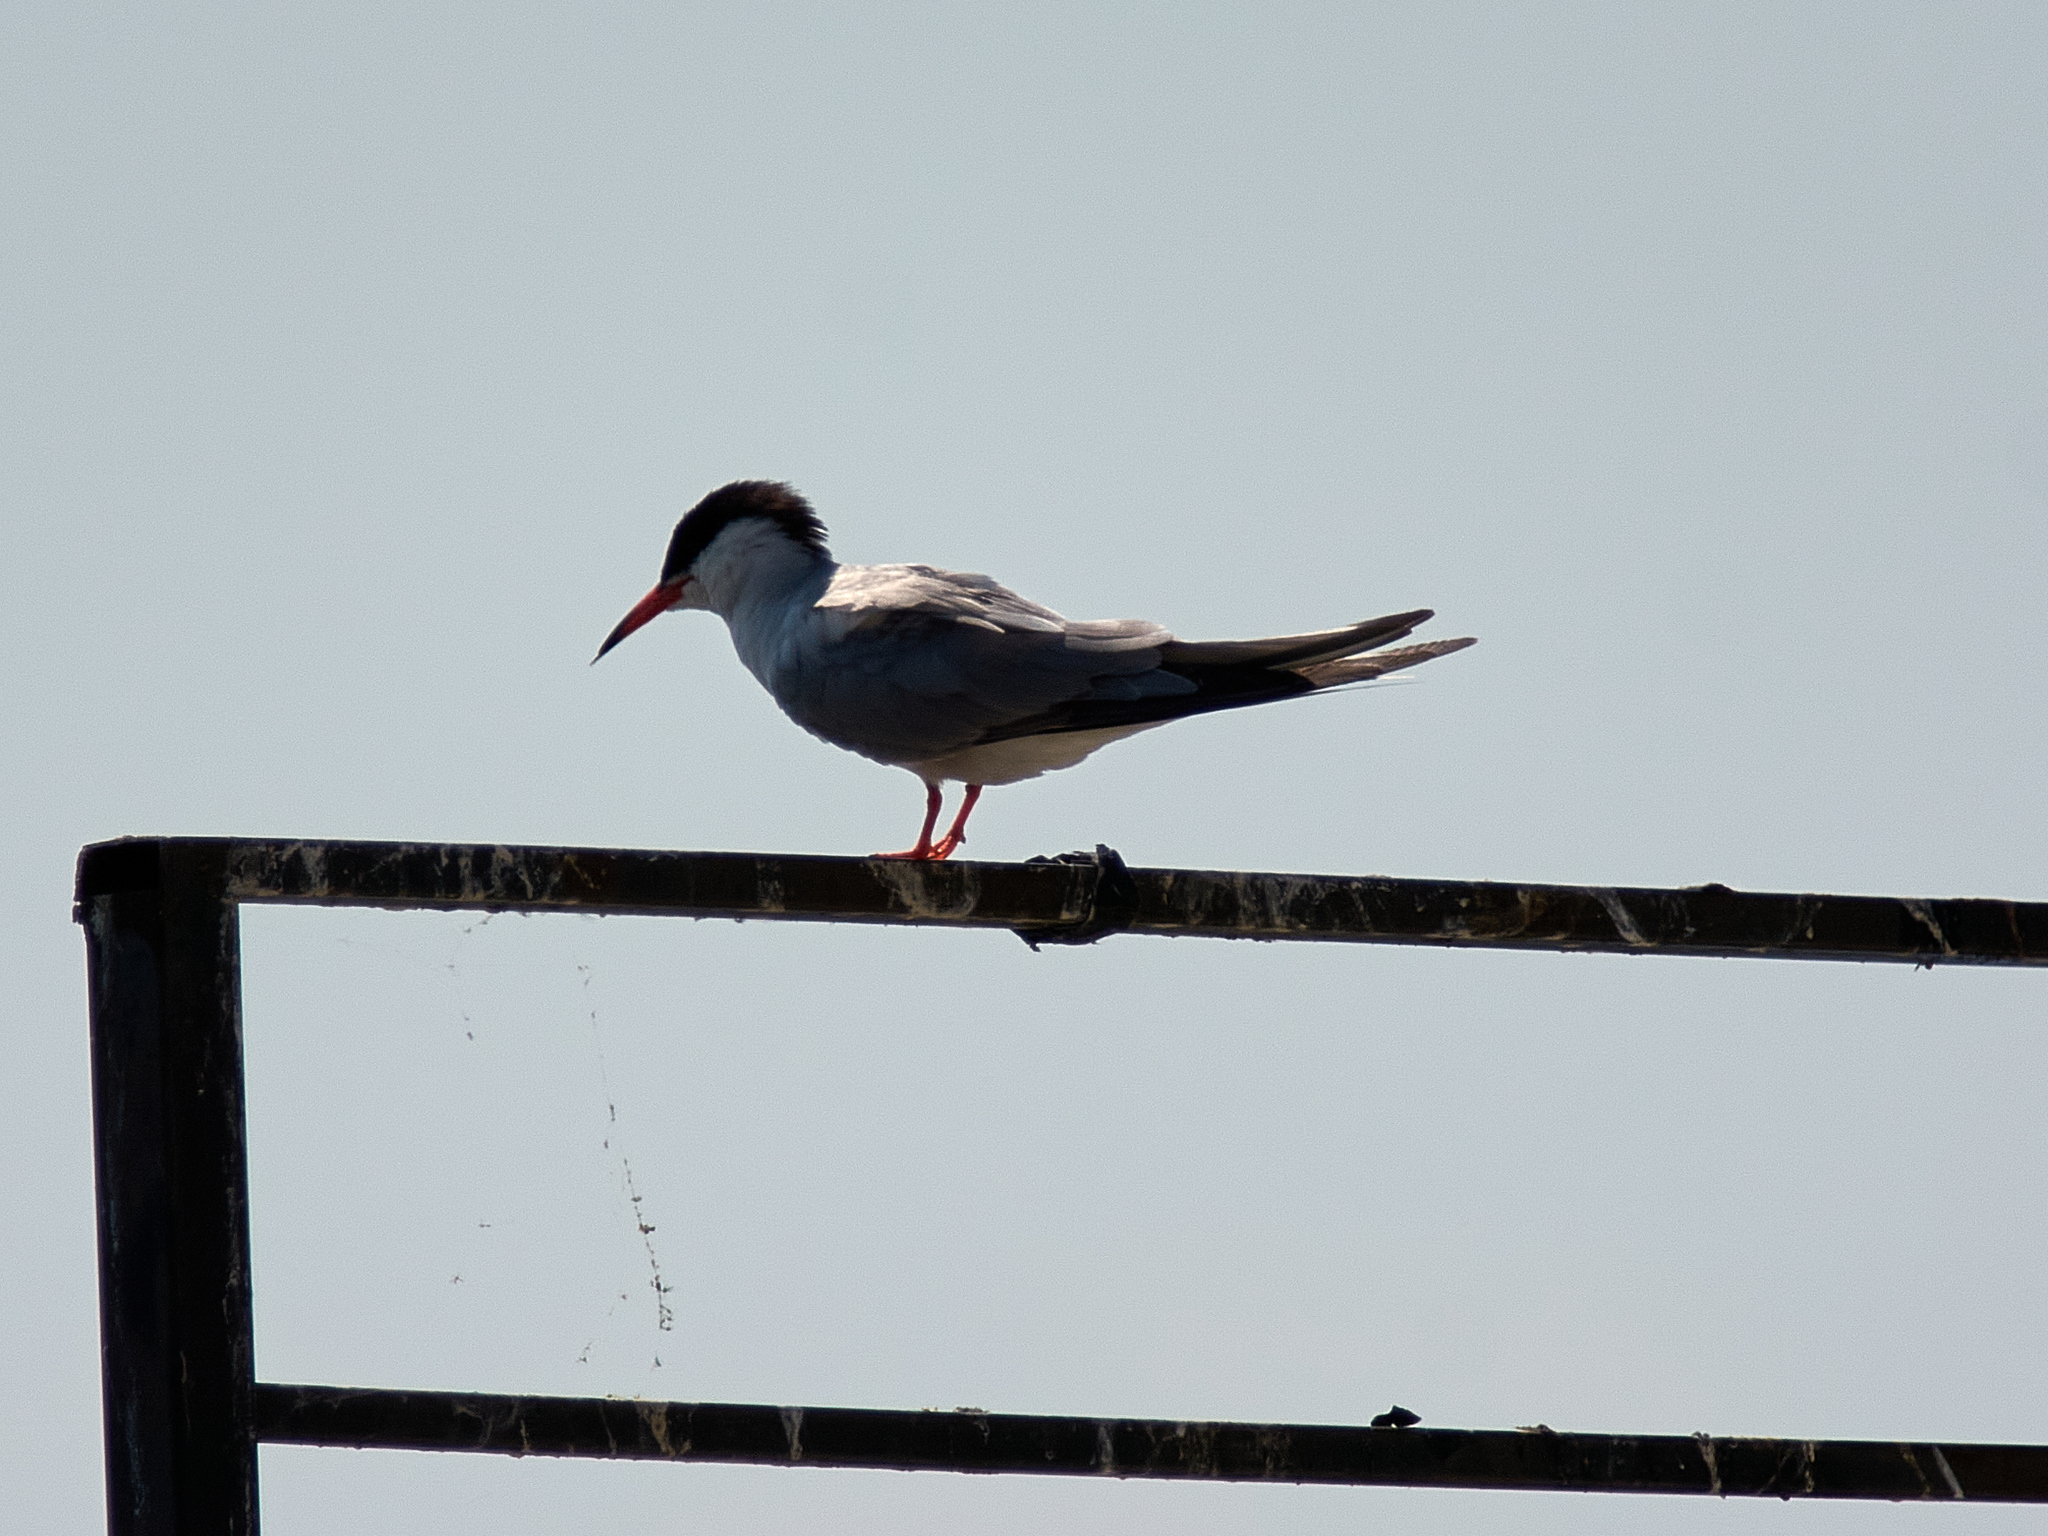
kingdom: Animalia
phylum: Chordata
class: Aves
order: Charadriiformes
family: Laridae
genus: Sterna
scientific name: Sterna hirundo
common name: Common tern
